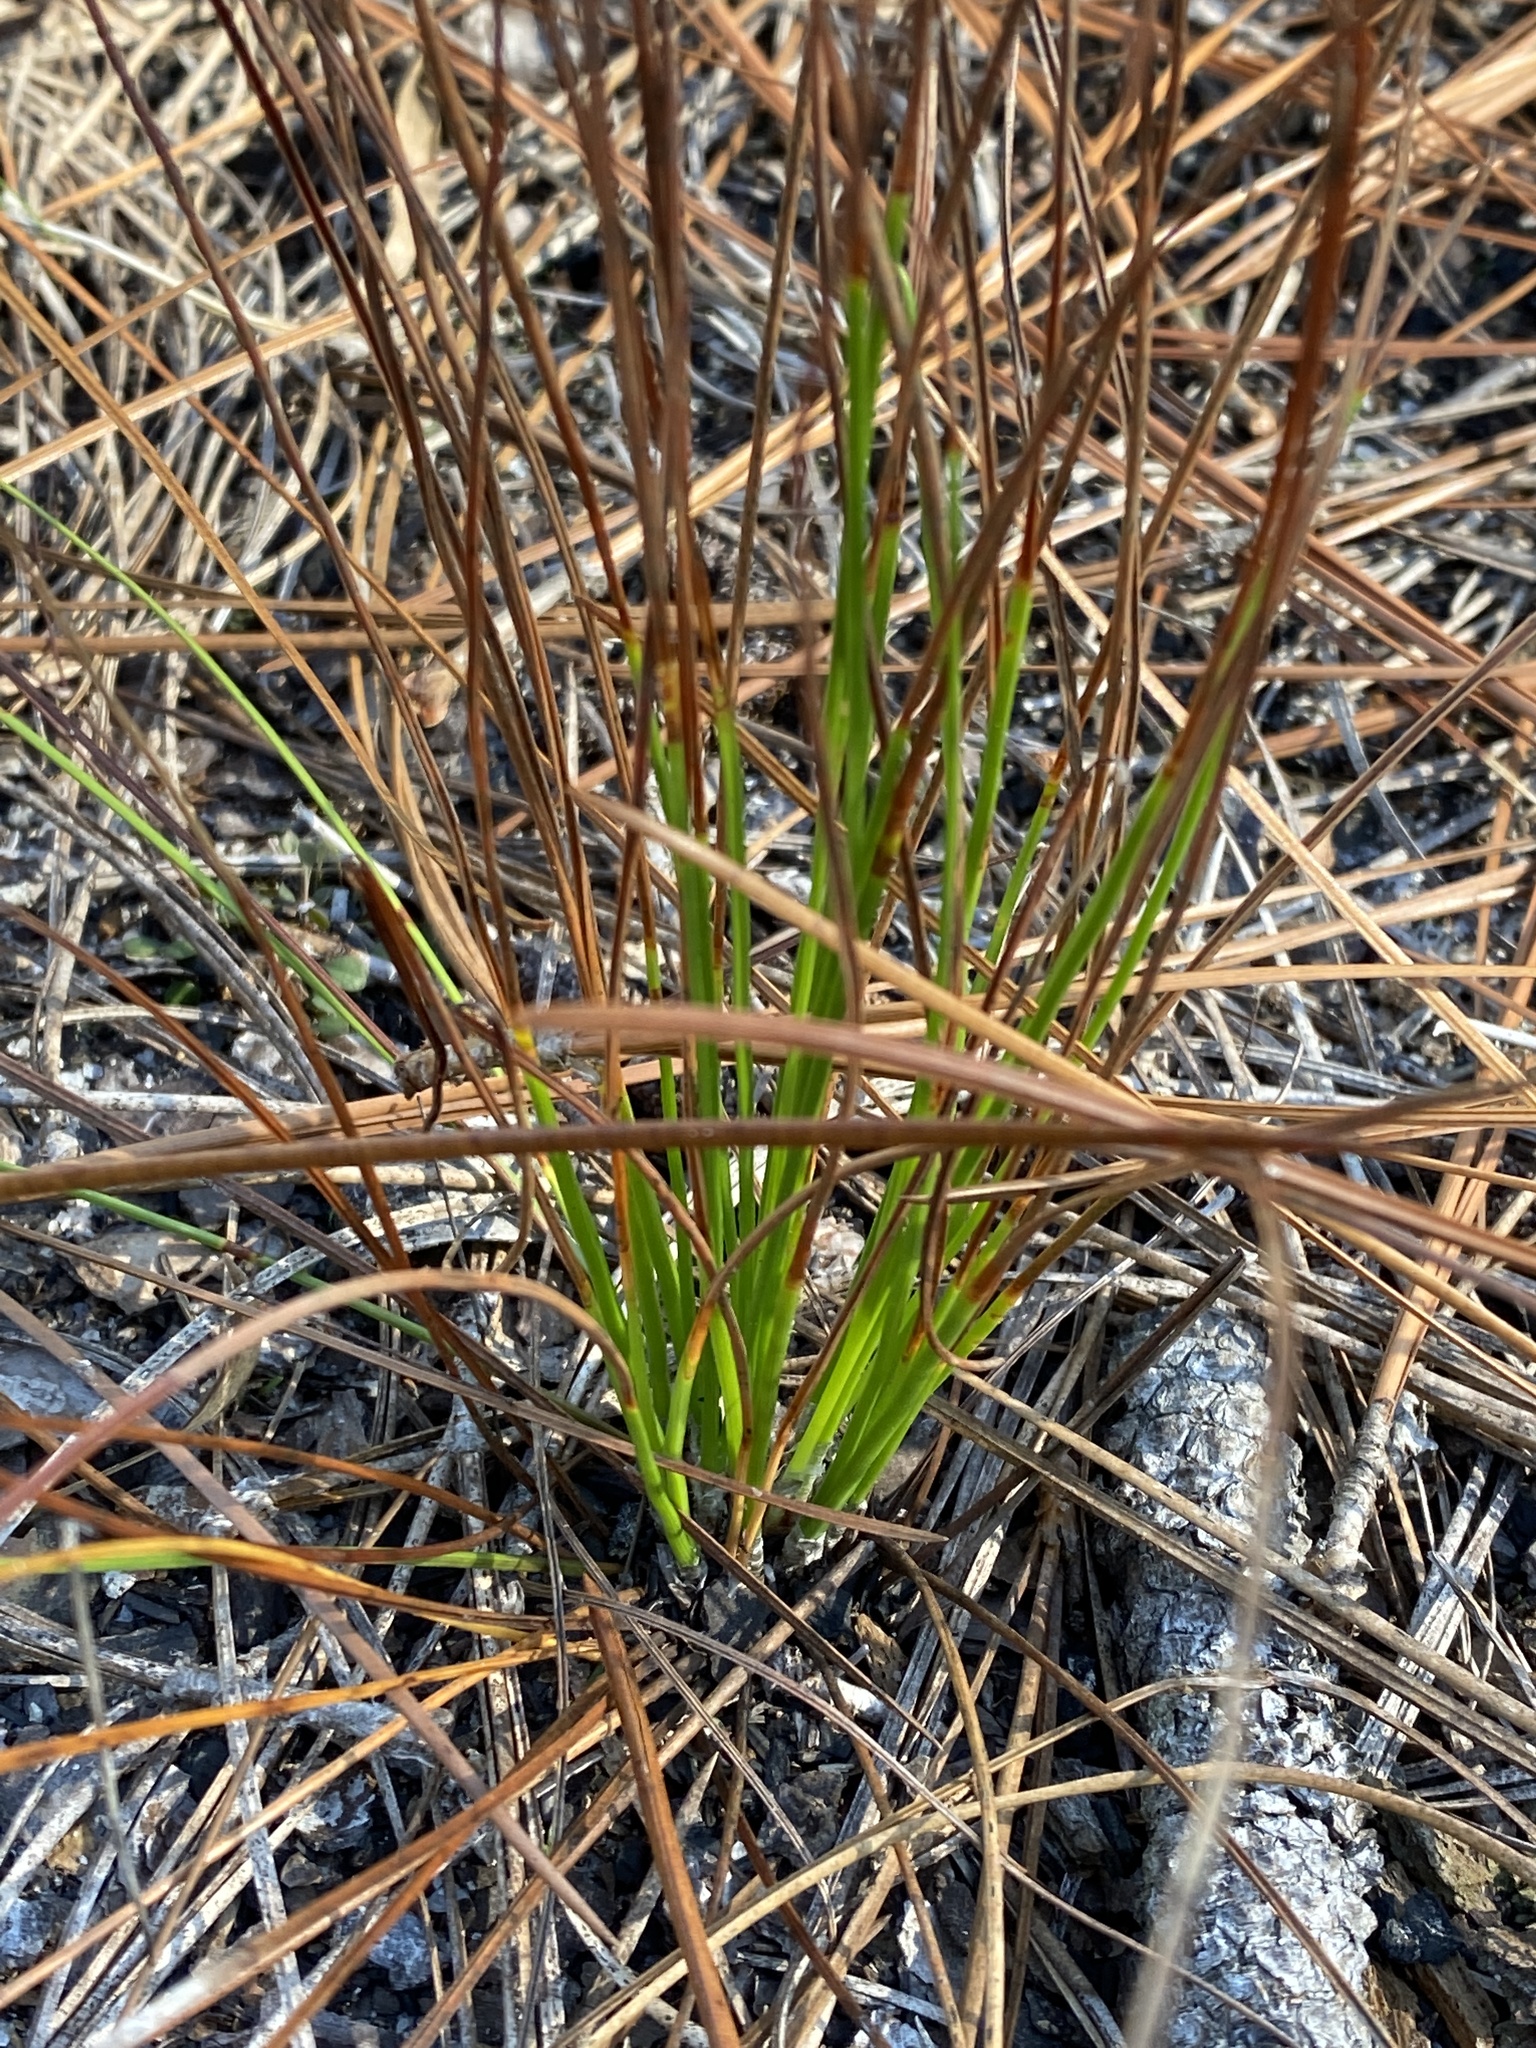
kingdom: Plantae
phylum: Tracheophyta
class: Liliopsida
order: Poales
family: Xyridaceae
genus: Xyris
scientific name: Xyris caroliniana
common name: Carolina yellow-eyed-grass
